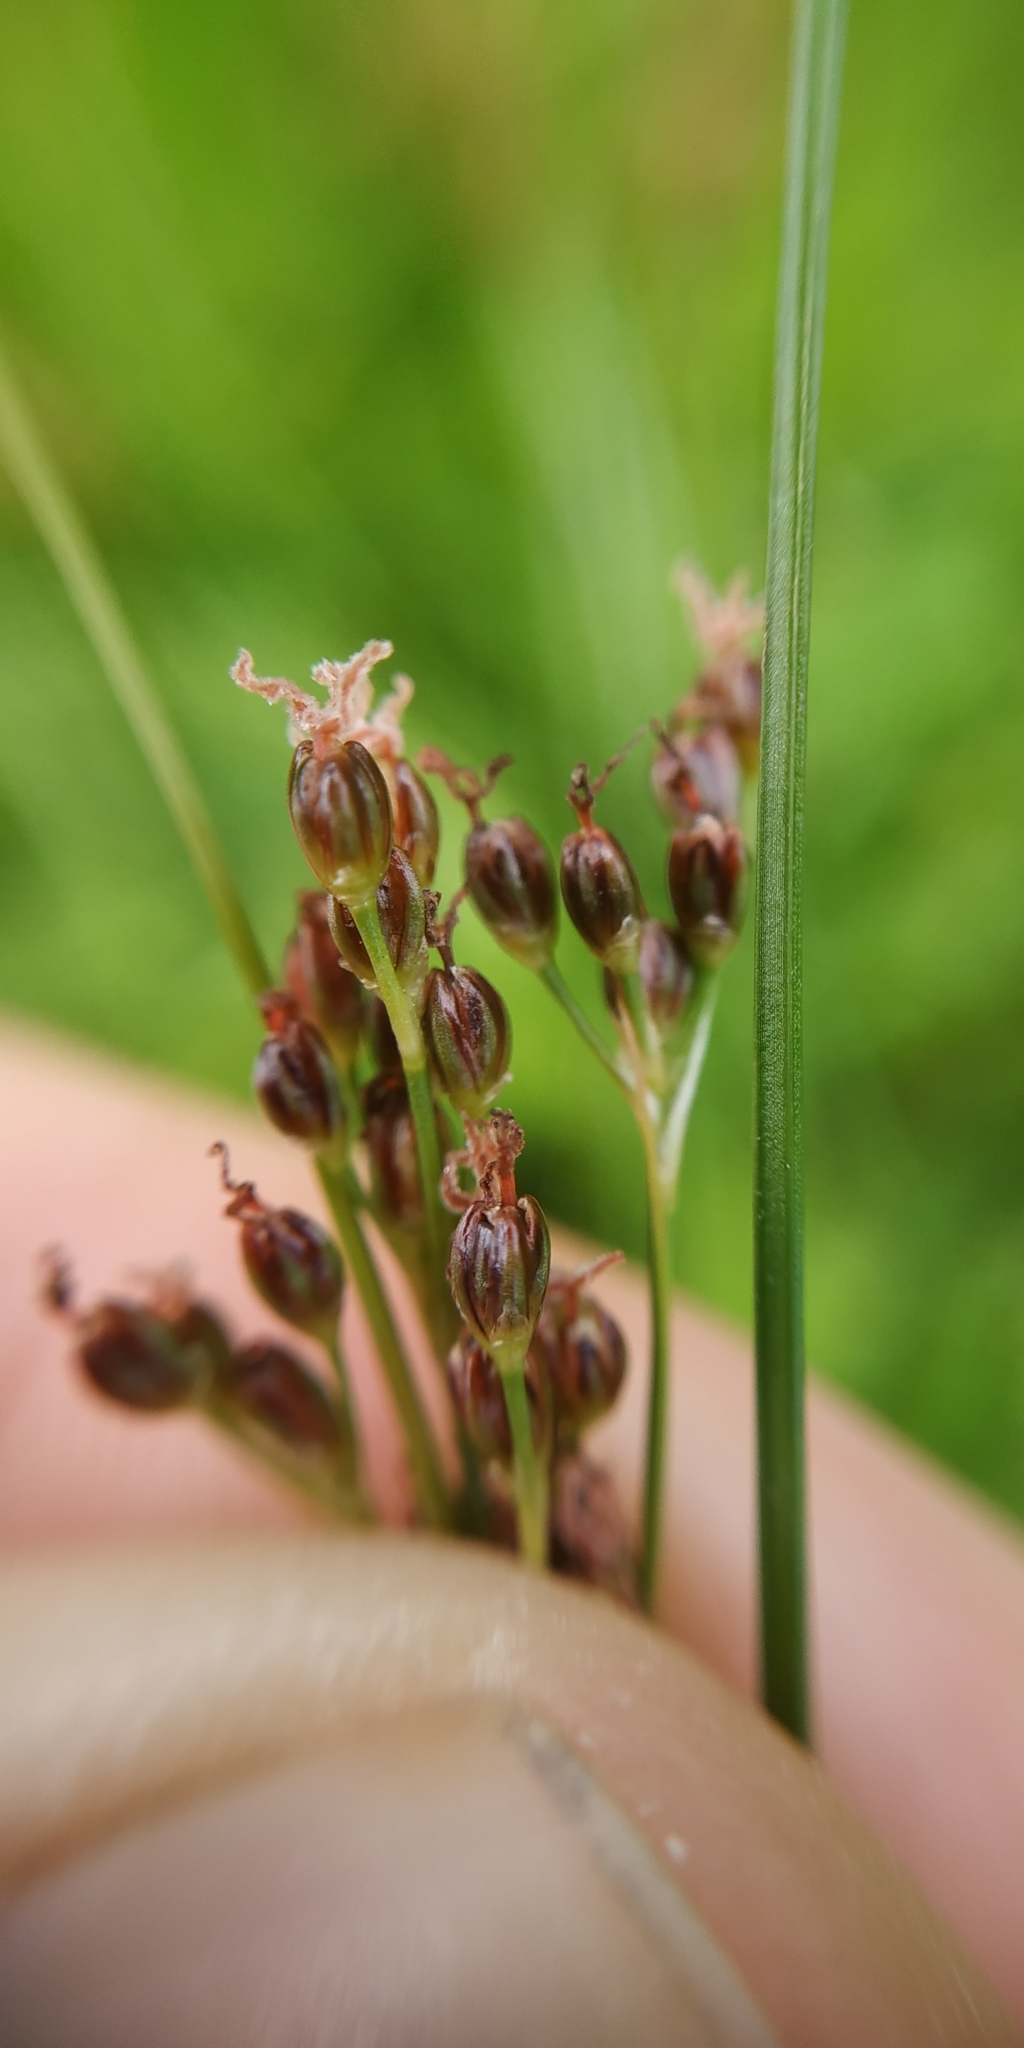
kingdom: Plantae
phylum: Tracheophyta
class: Liliopsida
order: Poales
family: Juncaceae
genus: Juncus
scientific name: Juncus compressus
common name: Round-fruited rush
